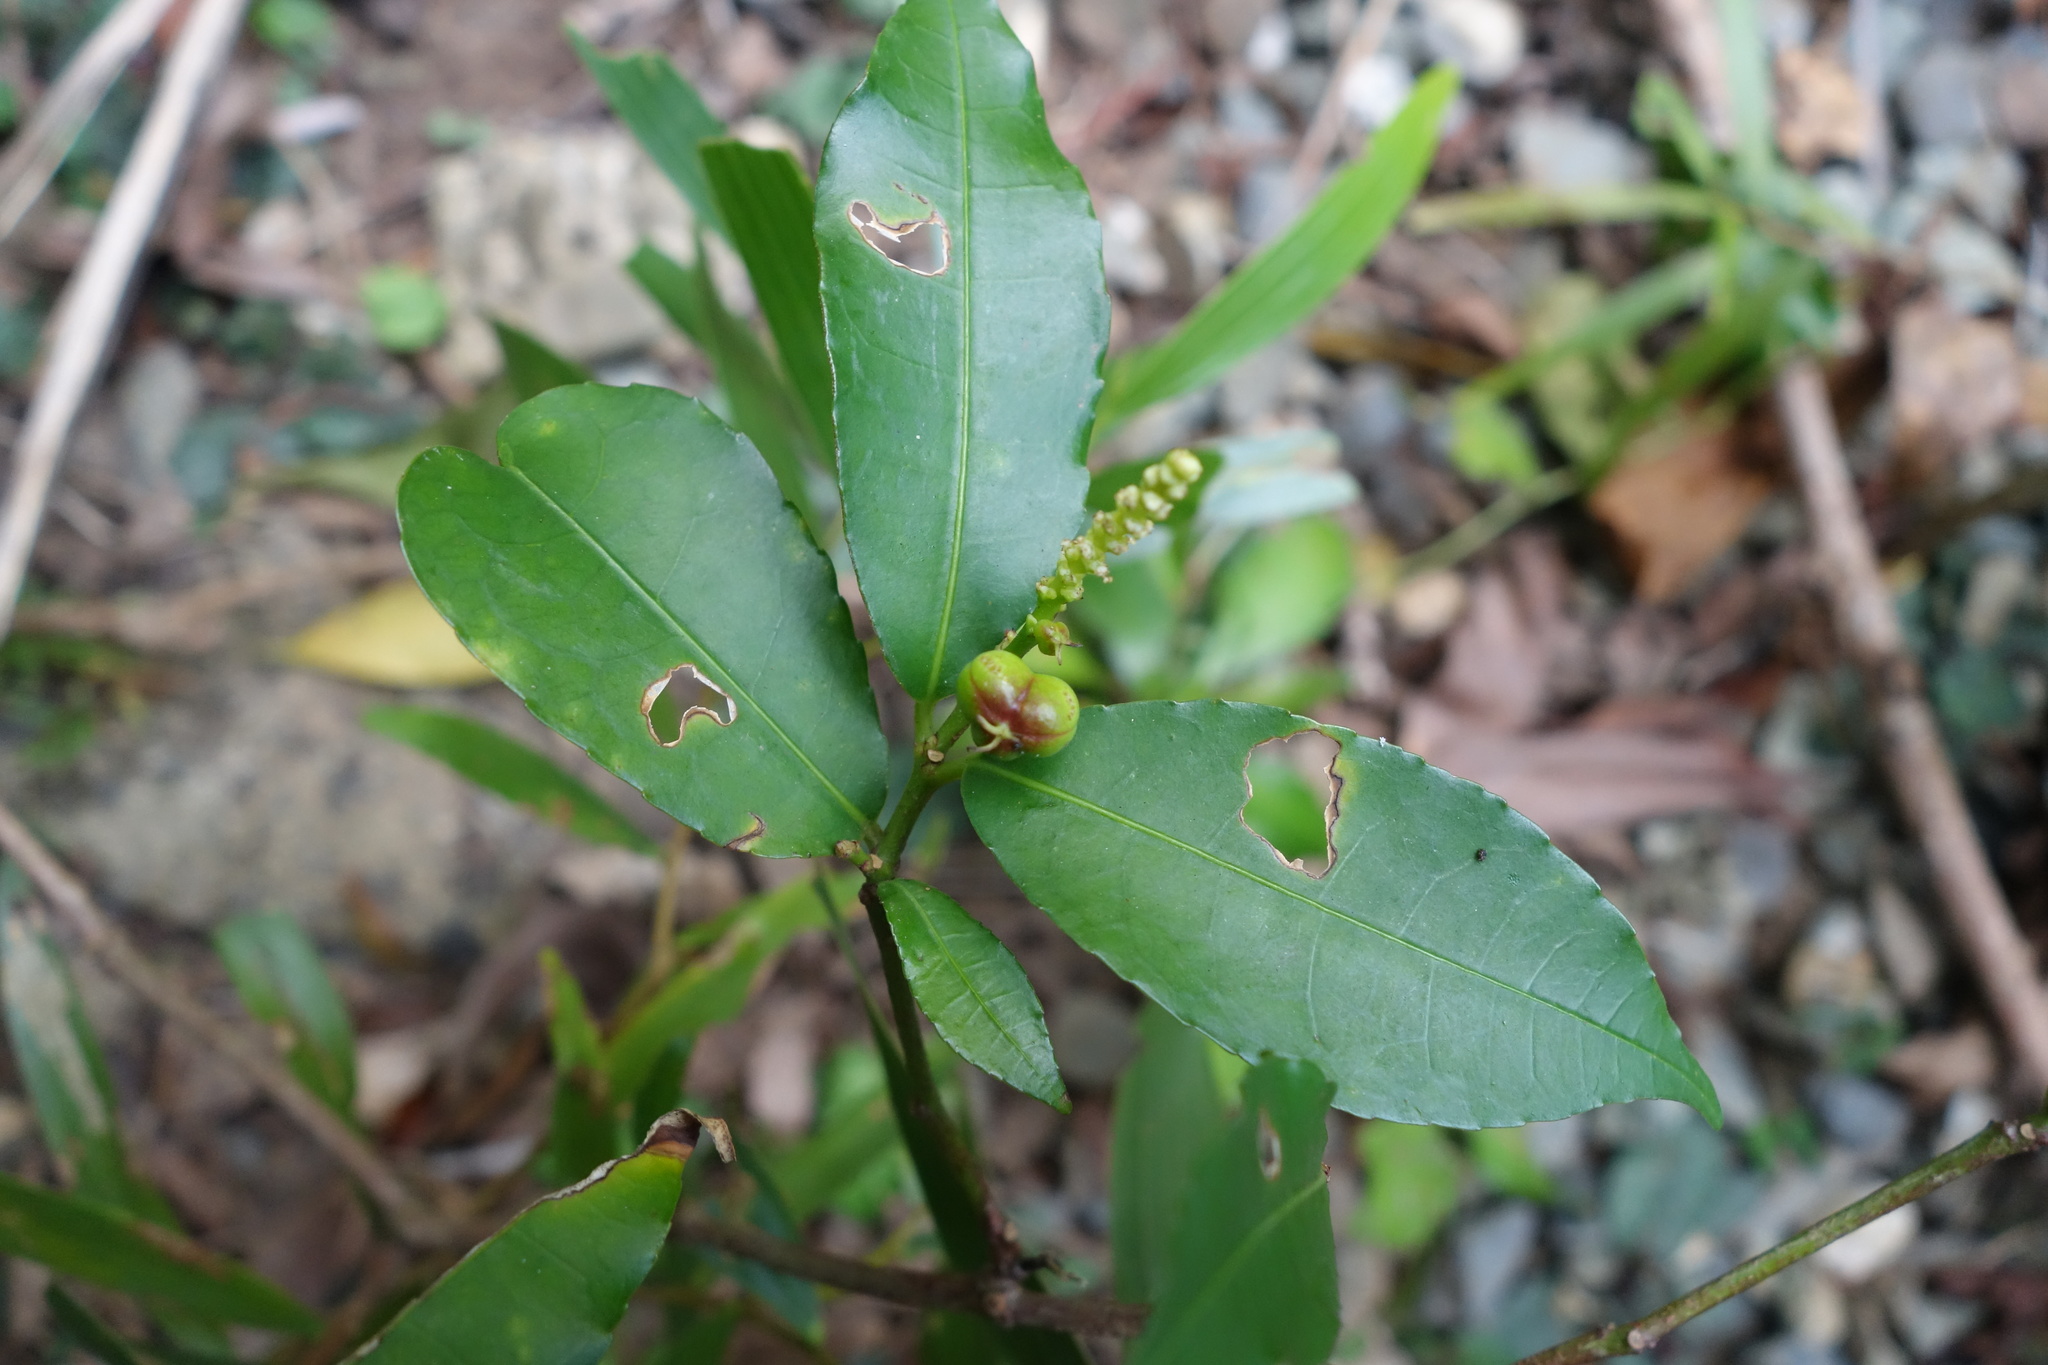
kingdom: Plantae
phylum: Tracheophyta
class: Magnoliopsida
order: Malpighiales
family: Euphorbiaceae
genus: Excoecaria
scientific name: Excoecaria formosana
